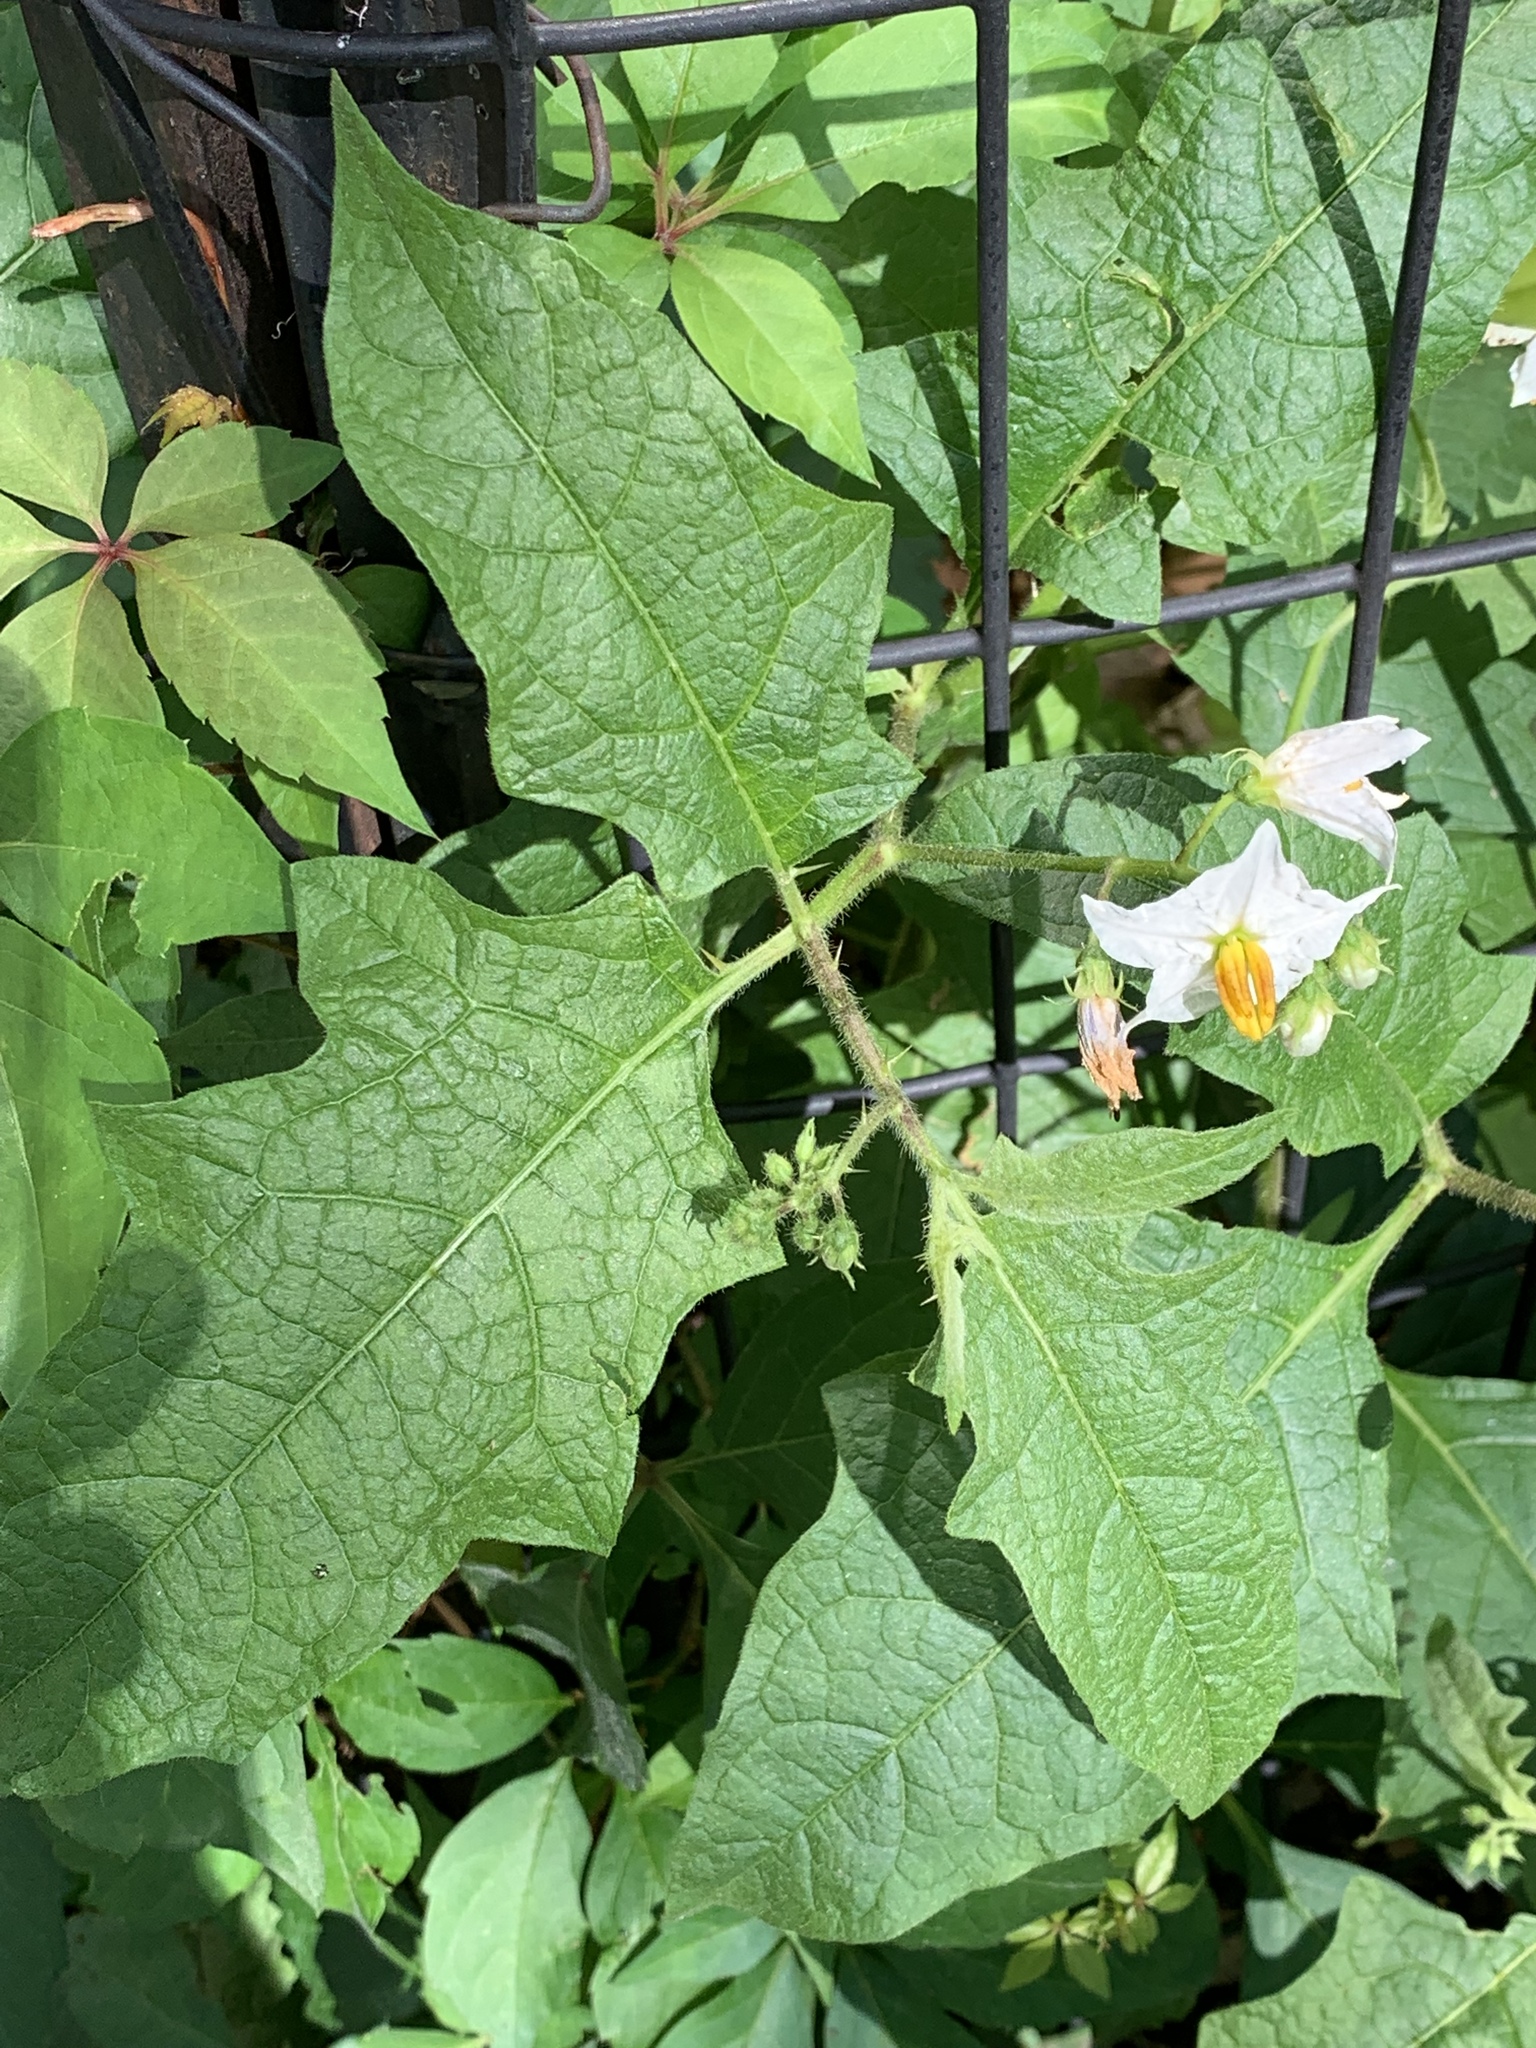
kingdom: Plantae
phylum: Tracheophyta
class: Magnoliopsida
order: Solanales
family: Solanaceae
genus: Solanum
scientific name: Solanum carolinense
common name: Horse-nettle
